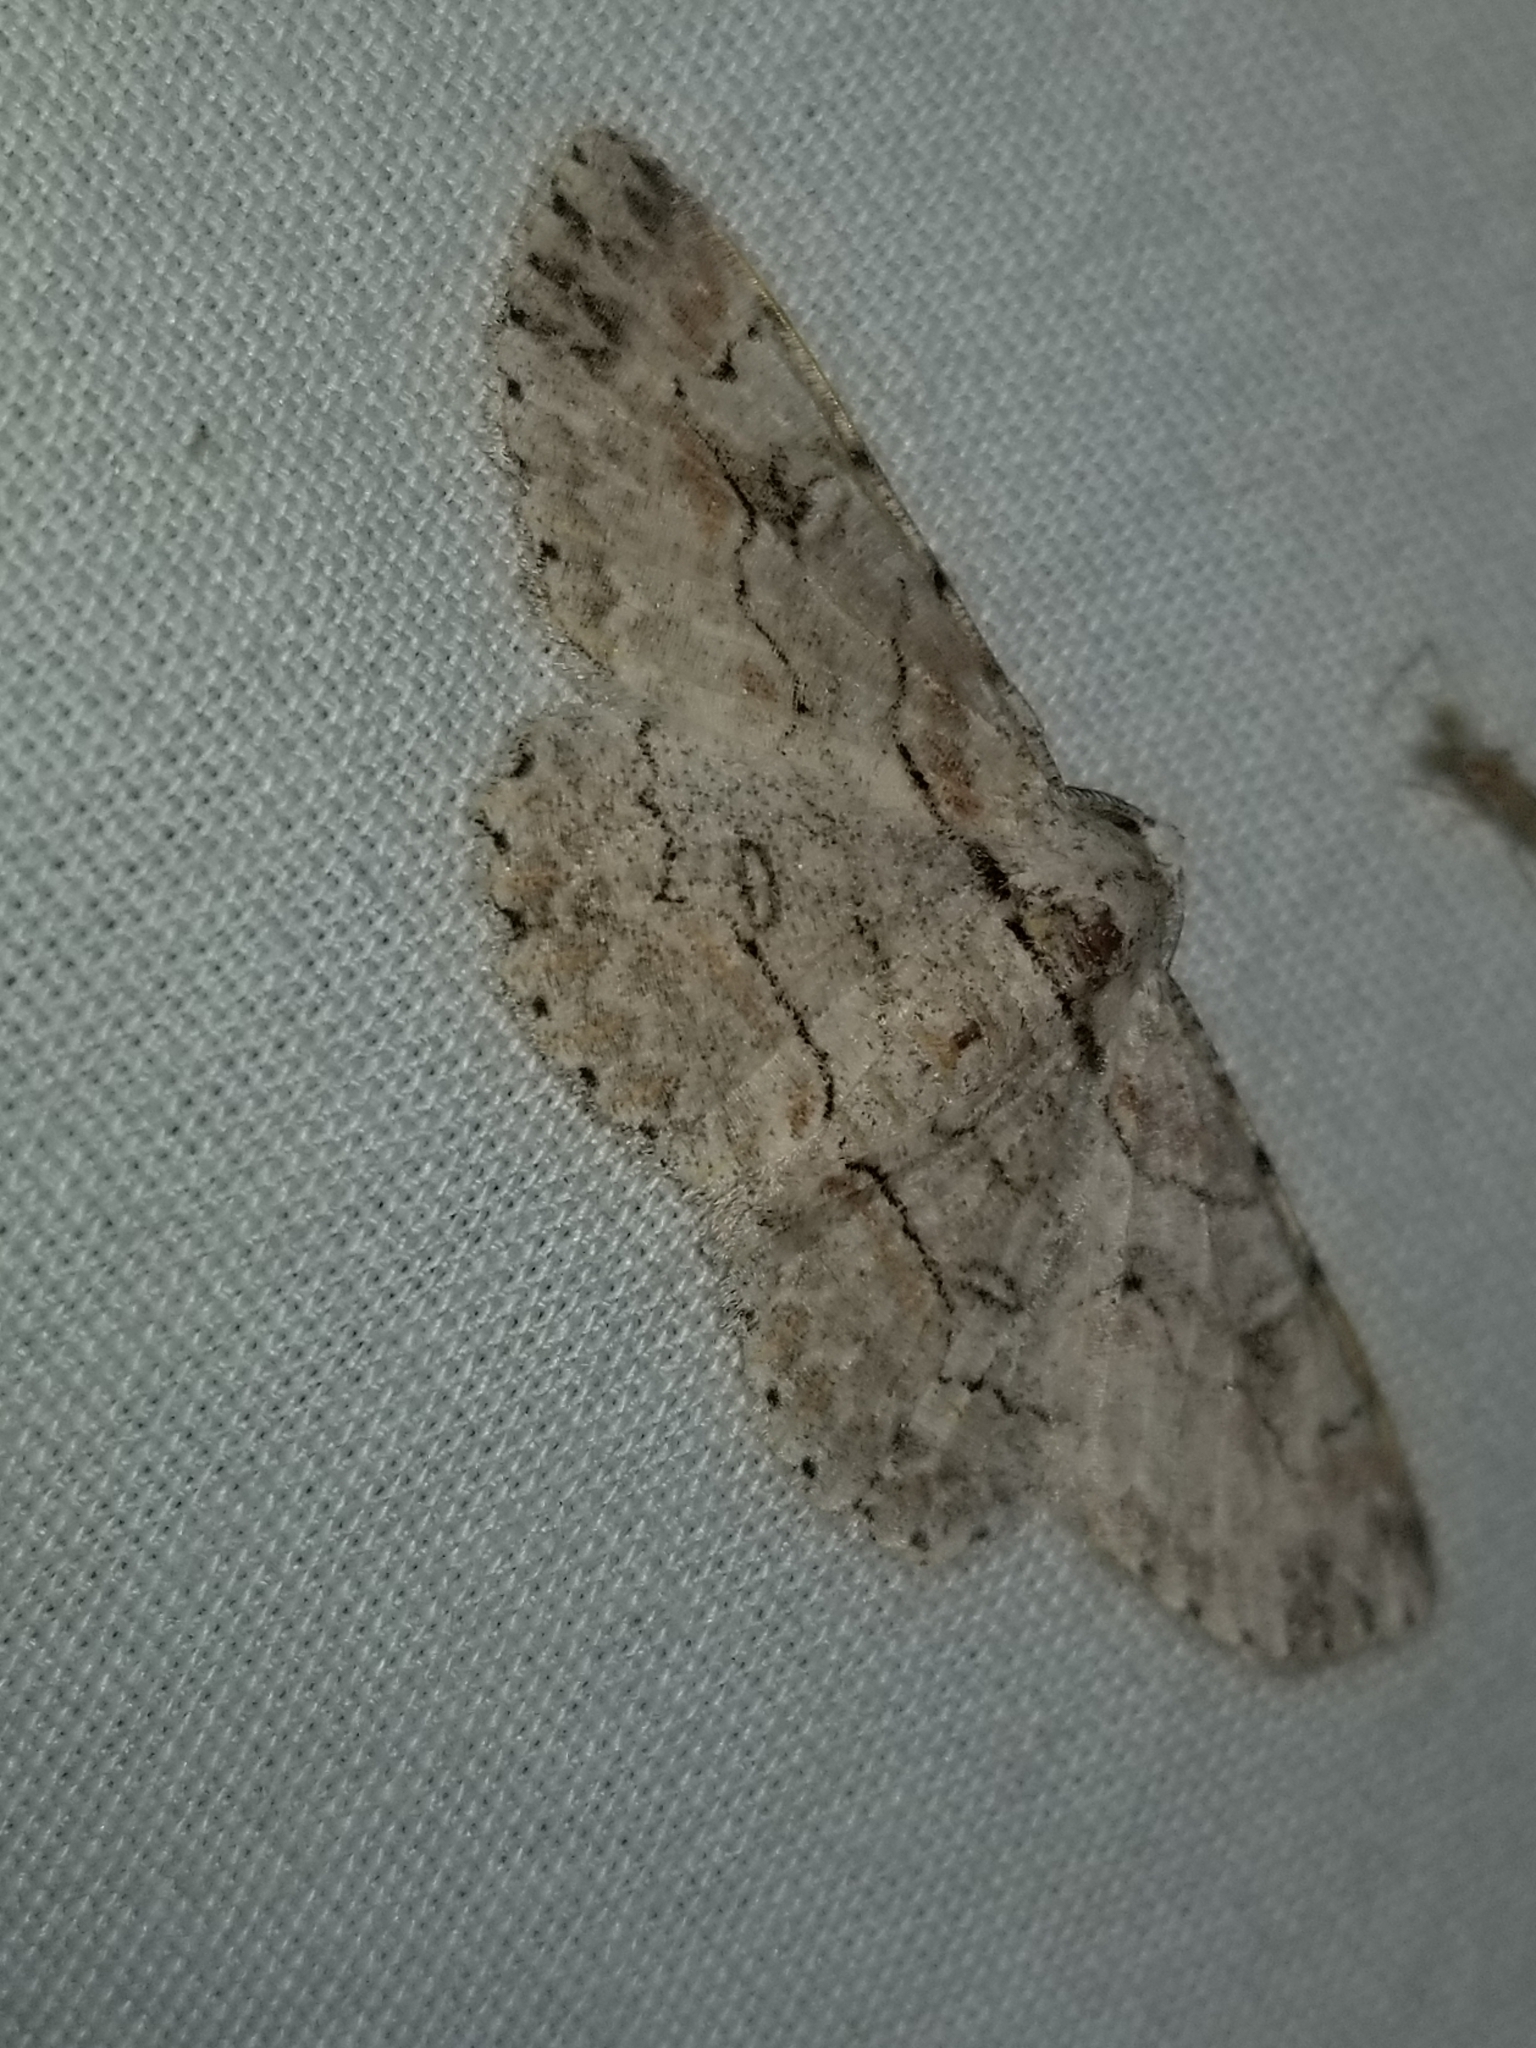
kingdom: Animalia
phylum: Arthropoda
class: Insecta
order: Lepidoptera
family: Geometridae
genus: Iridopsis
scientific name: Iridopsis defectaria
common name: Brown-shaded gray
